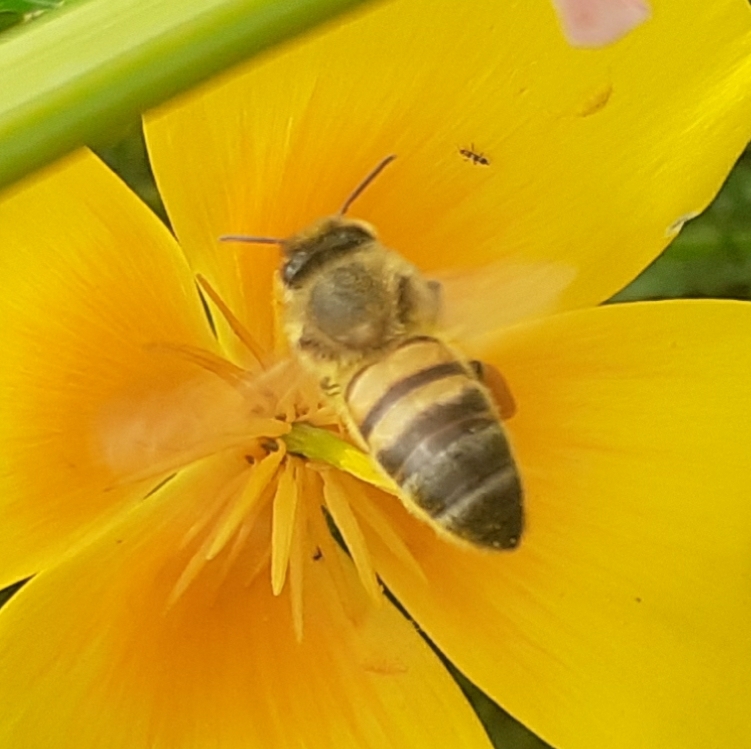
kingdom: Animalia
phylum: Arthropoda
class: Insecta
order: Hymenoptera
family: Apidae
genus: Apis
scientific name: Apis mellifera
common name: Honey bee
